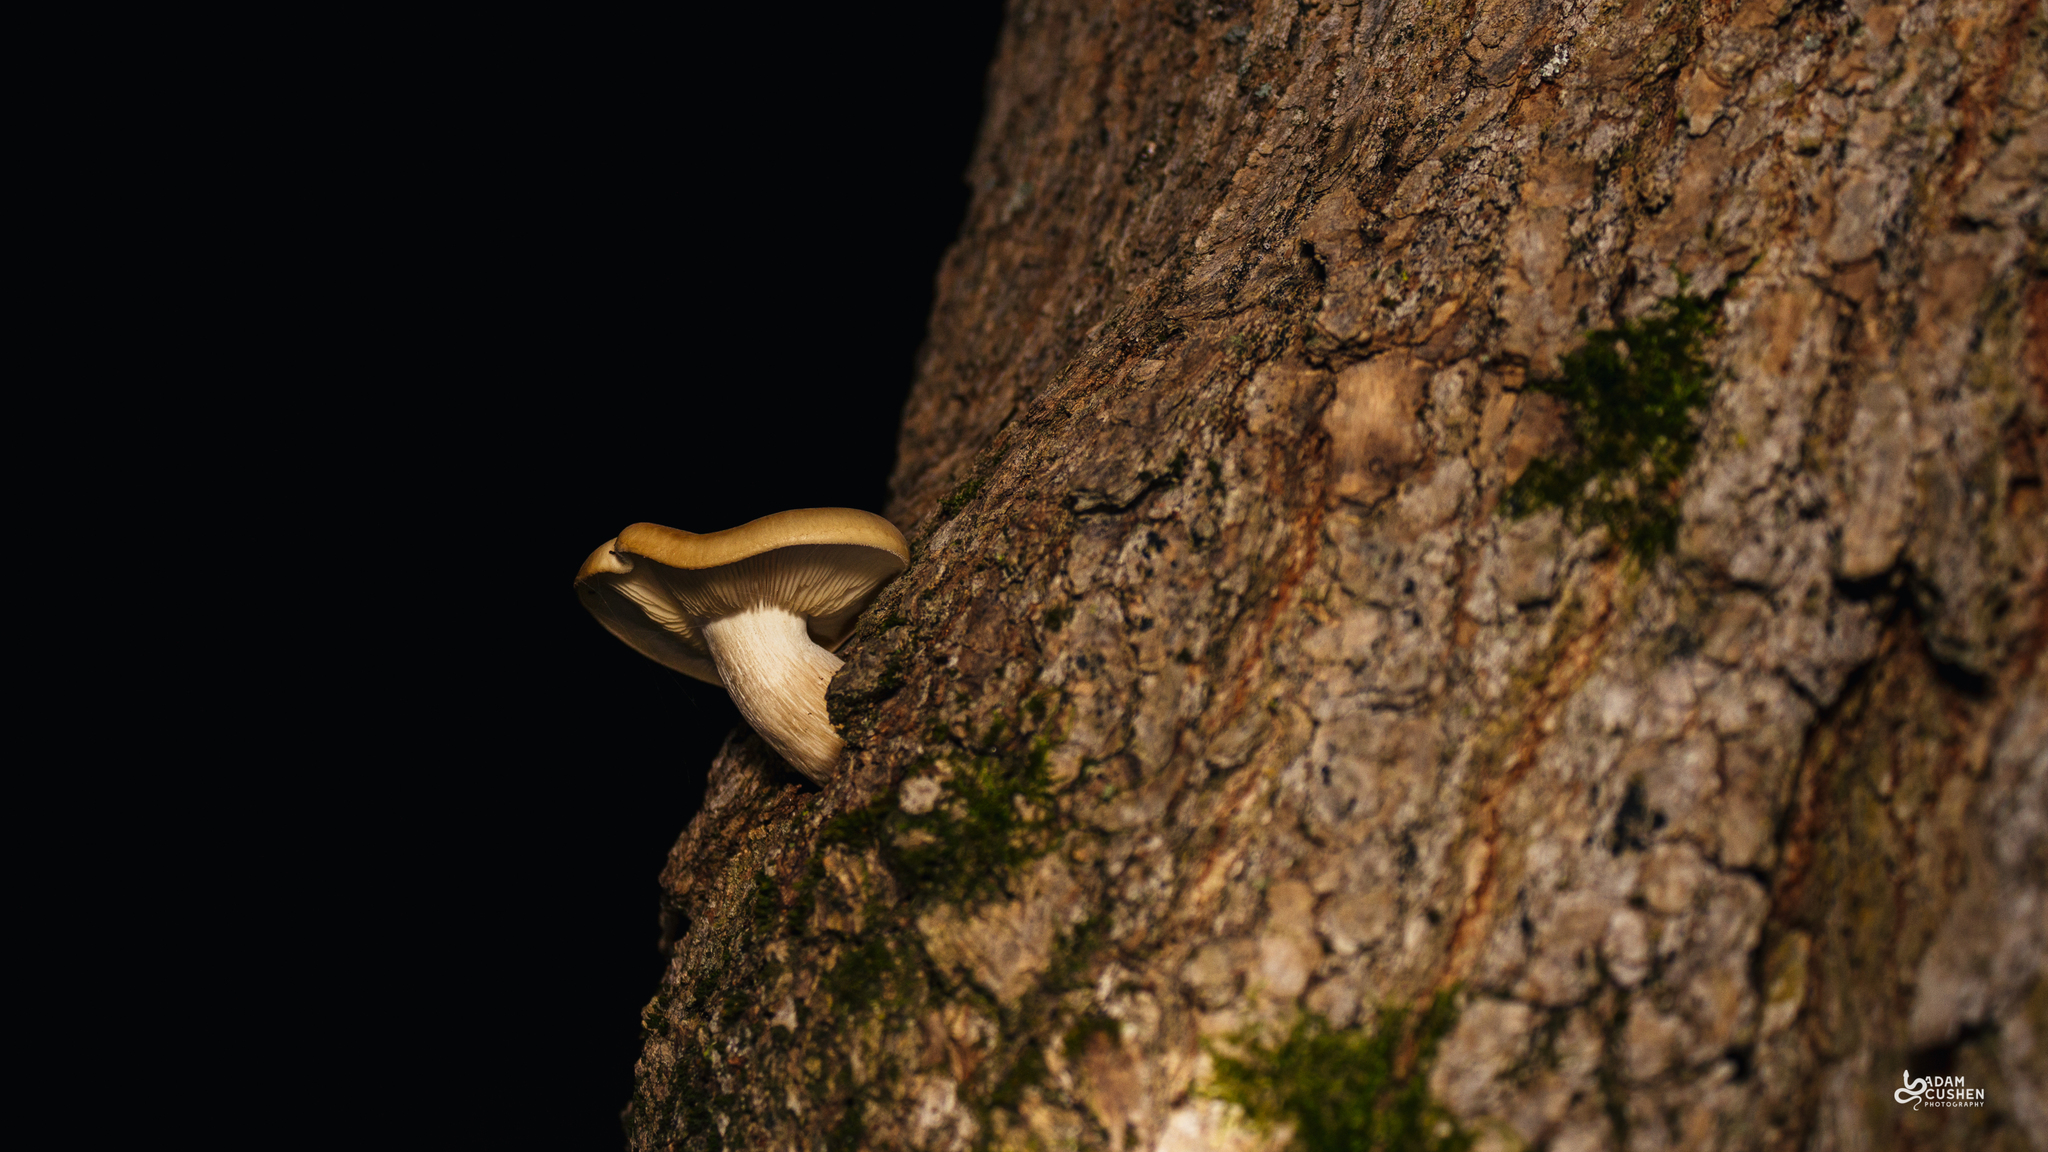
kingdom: Fungi
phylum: Basidiomycota
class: Agaricomycetes
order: Agaricales
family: Lyophyllaceae
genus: Hypsizygus
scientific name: Hypsizygus ulmarius
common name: Elm leech
